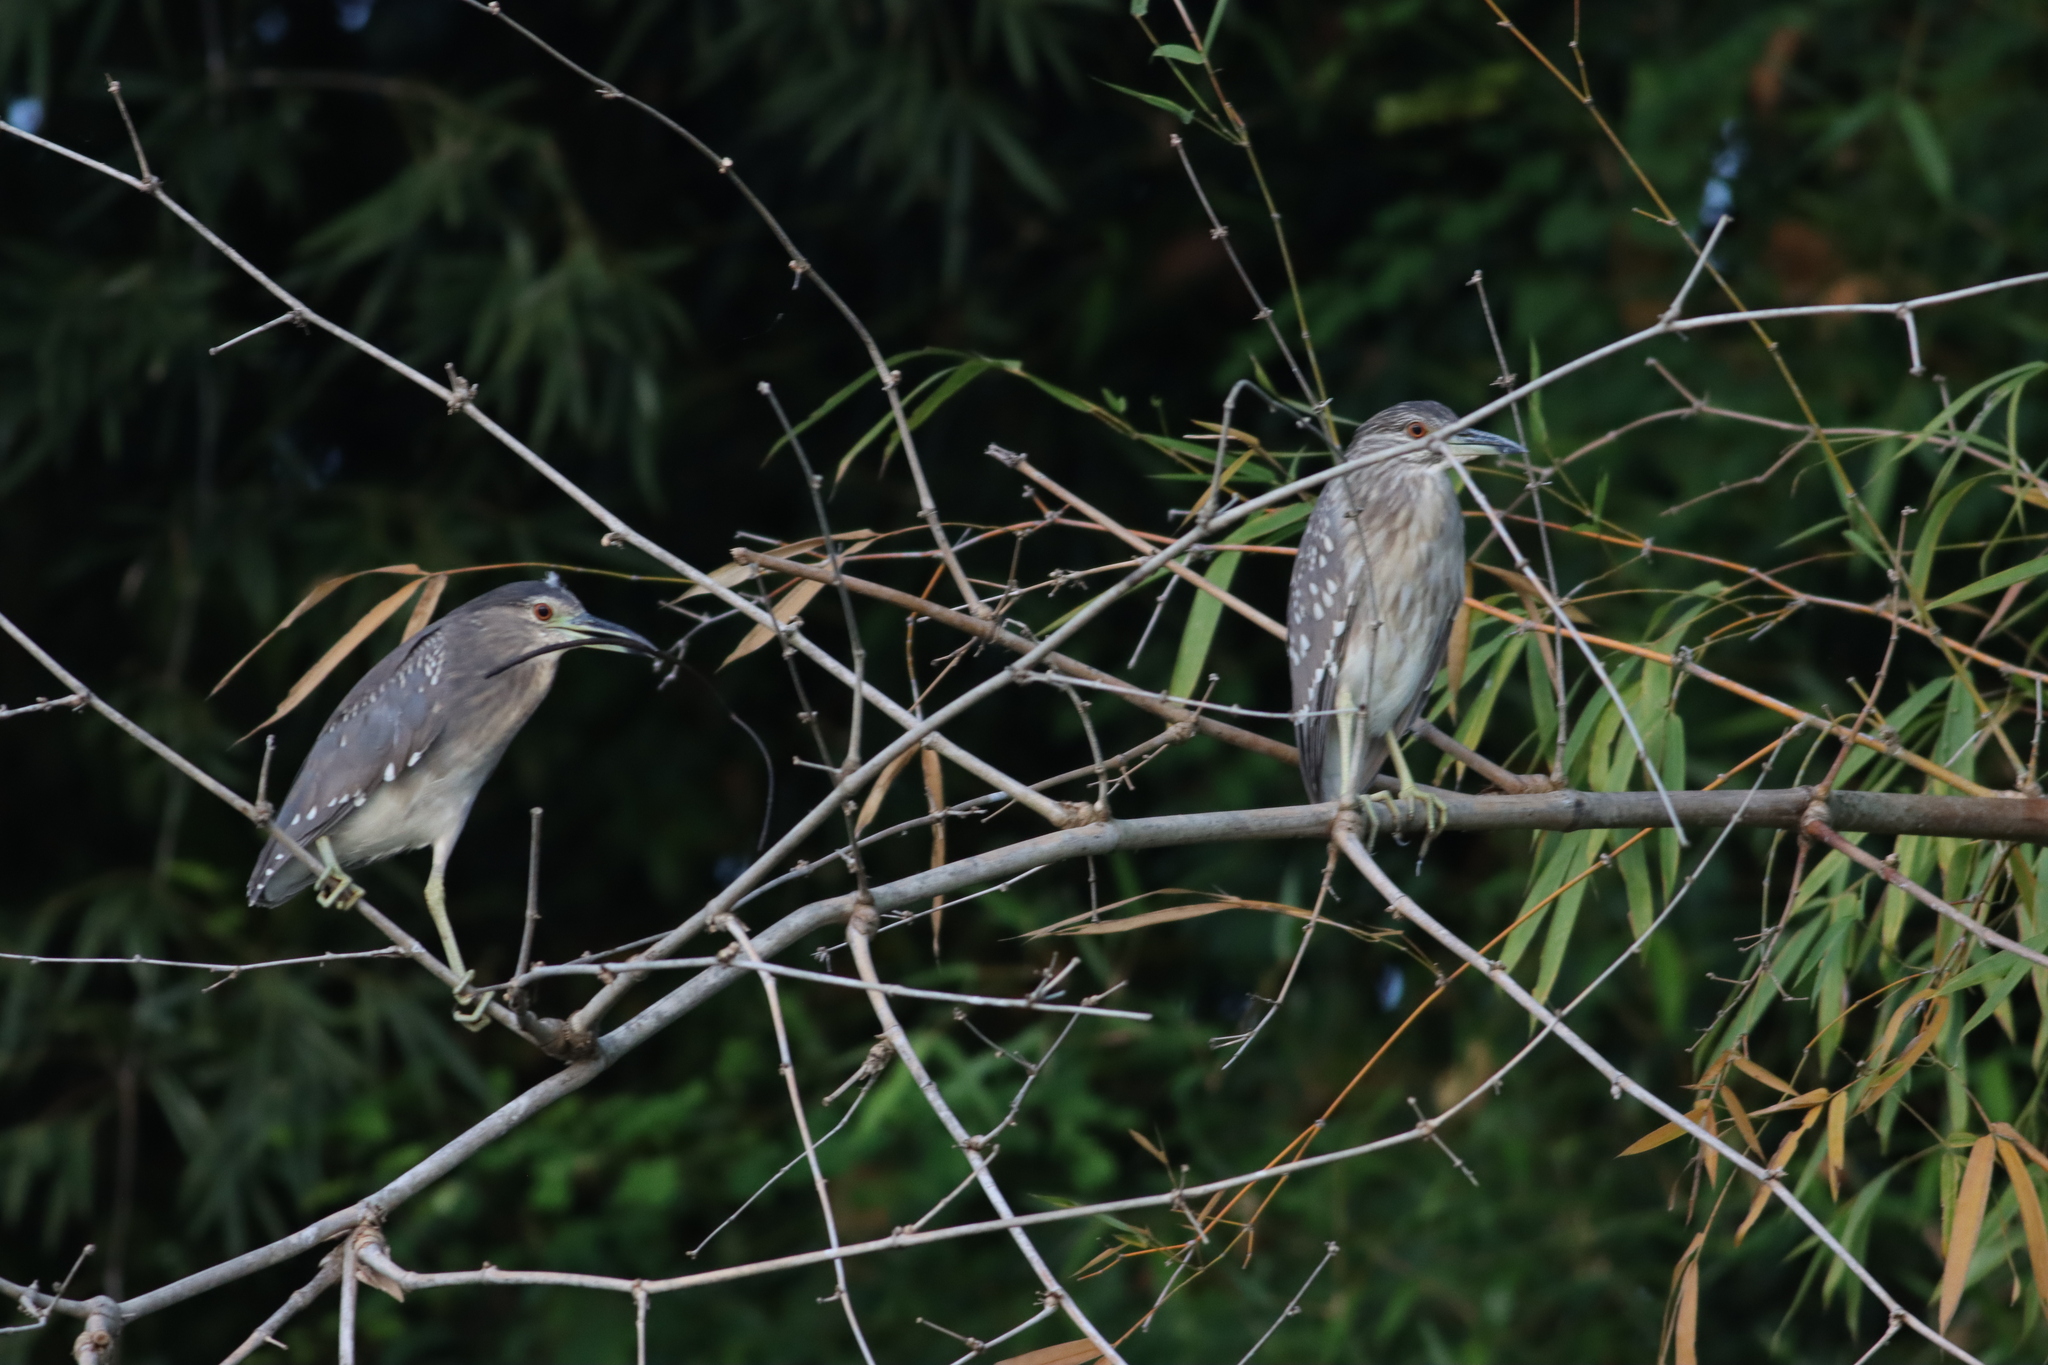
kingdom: Animalia
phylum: Chordata
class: Aves
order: Pelecaniformes
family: Ardeidae
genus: Nycticorax
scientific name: Nycticorax nycticorax
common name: Black-crowned night heron
